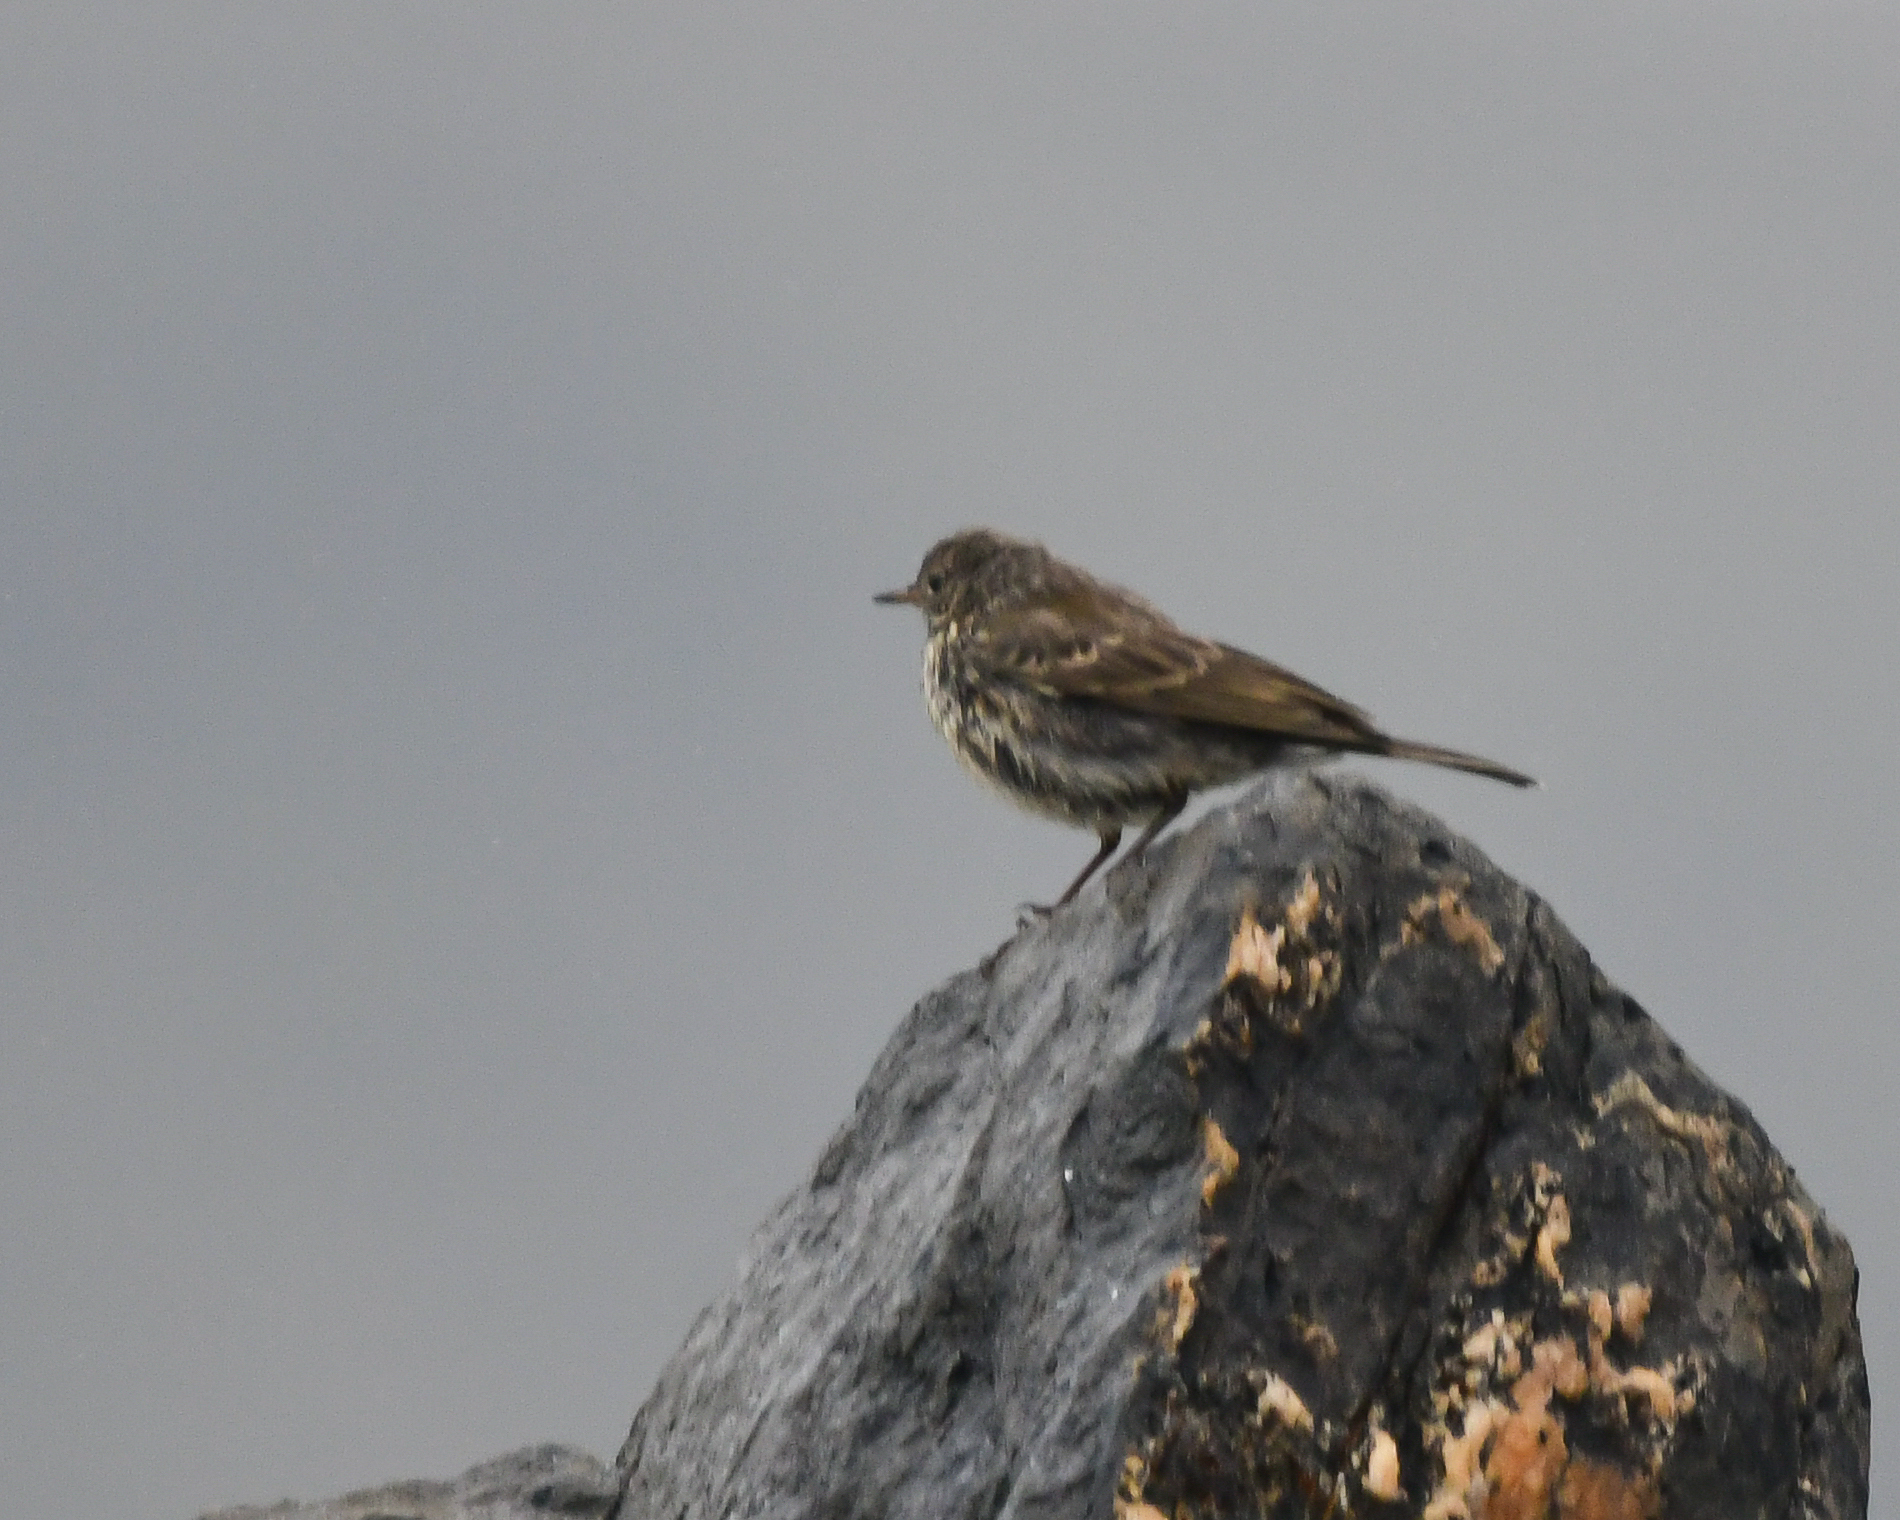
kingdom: Animalia
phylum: Chordata
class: Aves
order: Passeriformes
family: Motacillidae
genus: Anthus
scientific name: Anthus petrosus
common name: Eurasian rock pipit
